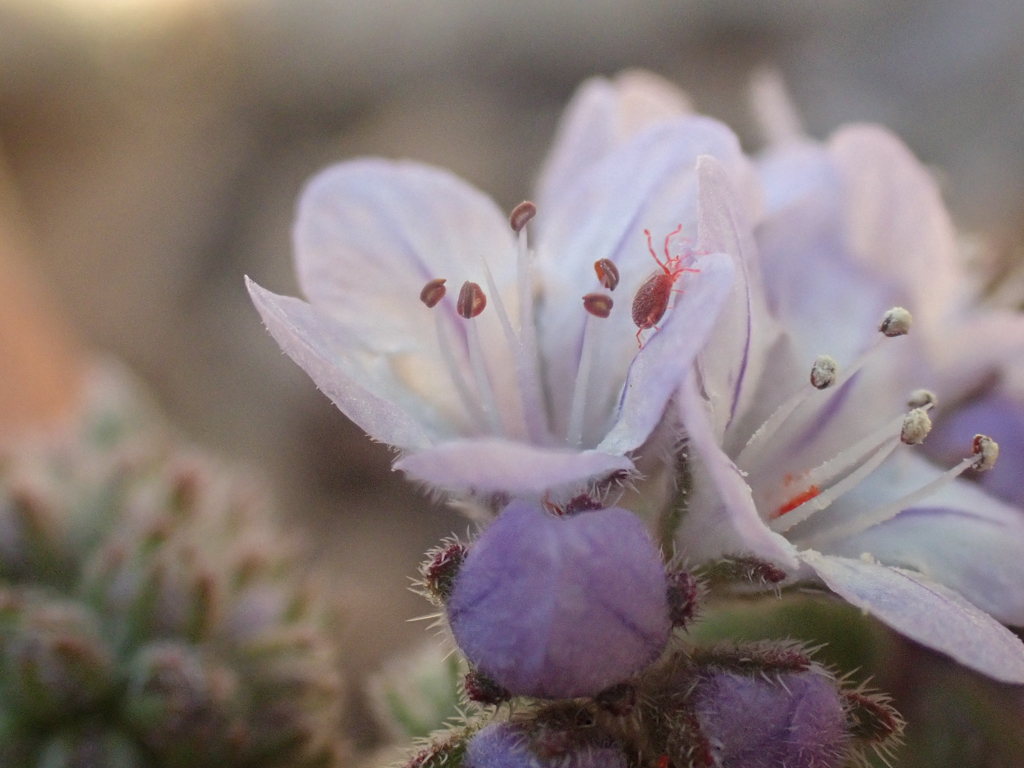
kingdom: Plantae
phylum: Tracheophyta
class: Magnoliopsida
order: Boraginales
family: Hydrophyllaceae
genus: Phacelia
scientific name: Phacelia breweri
